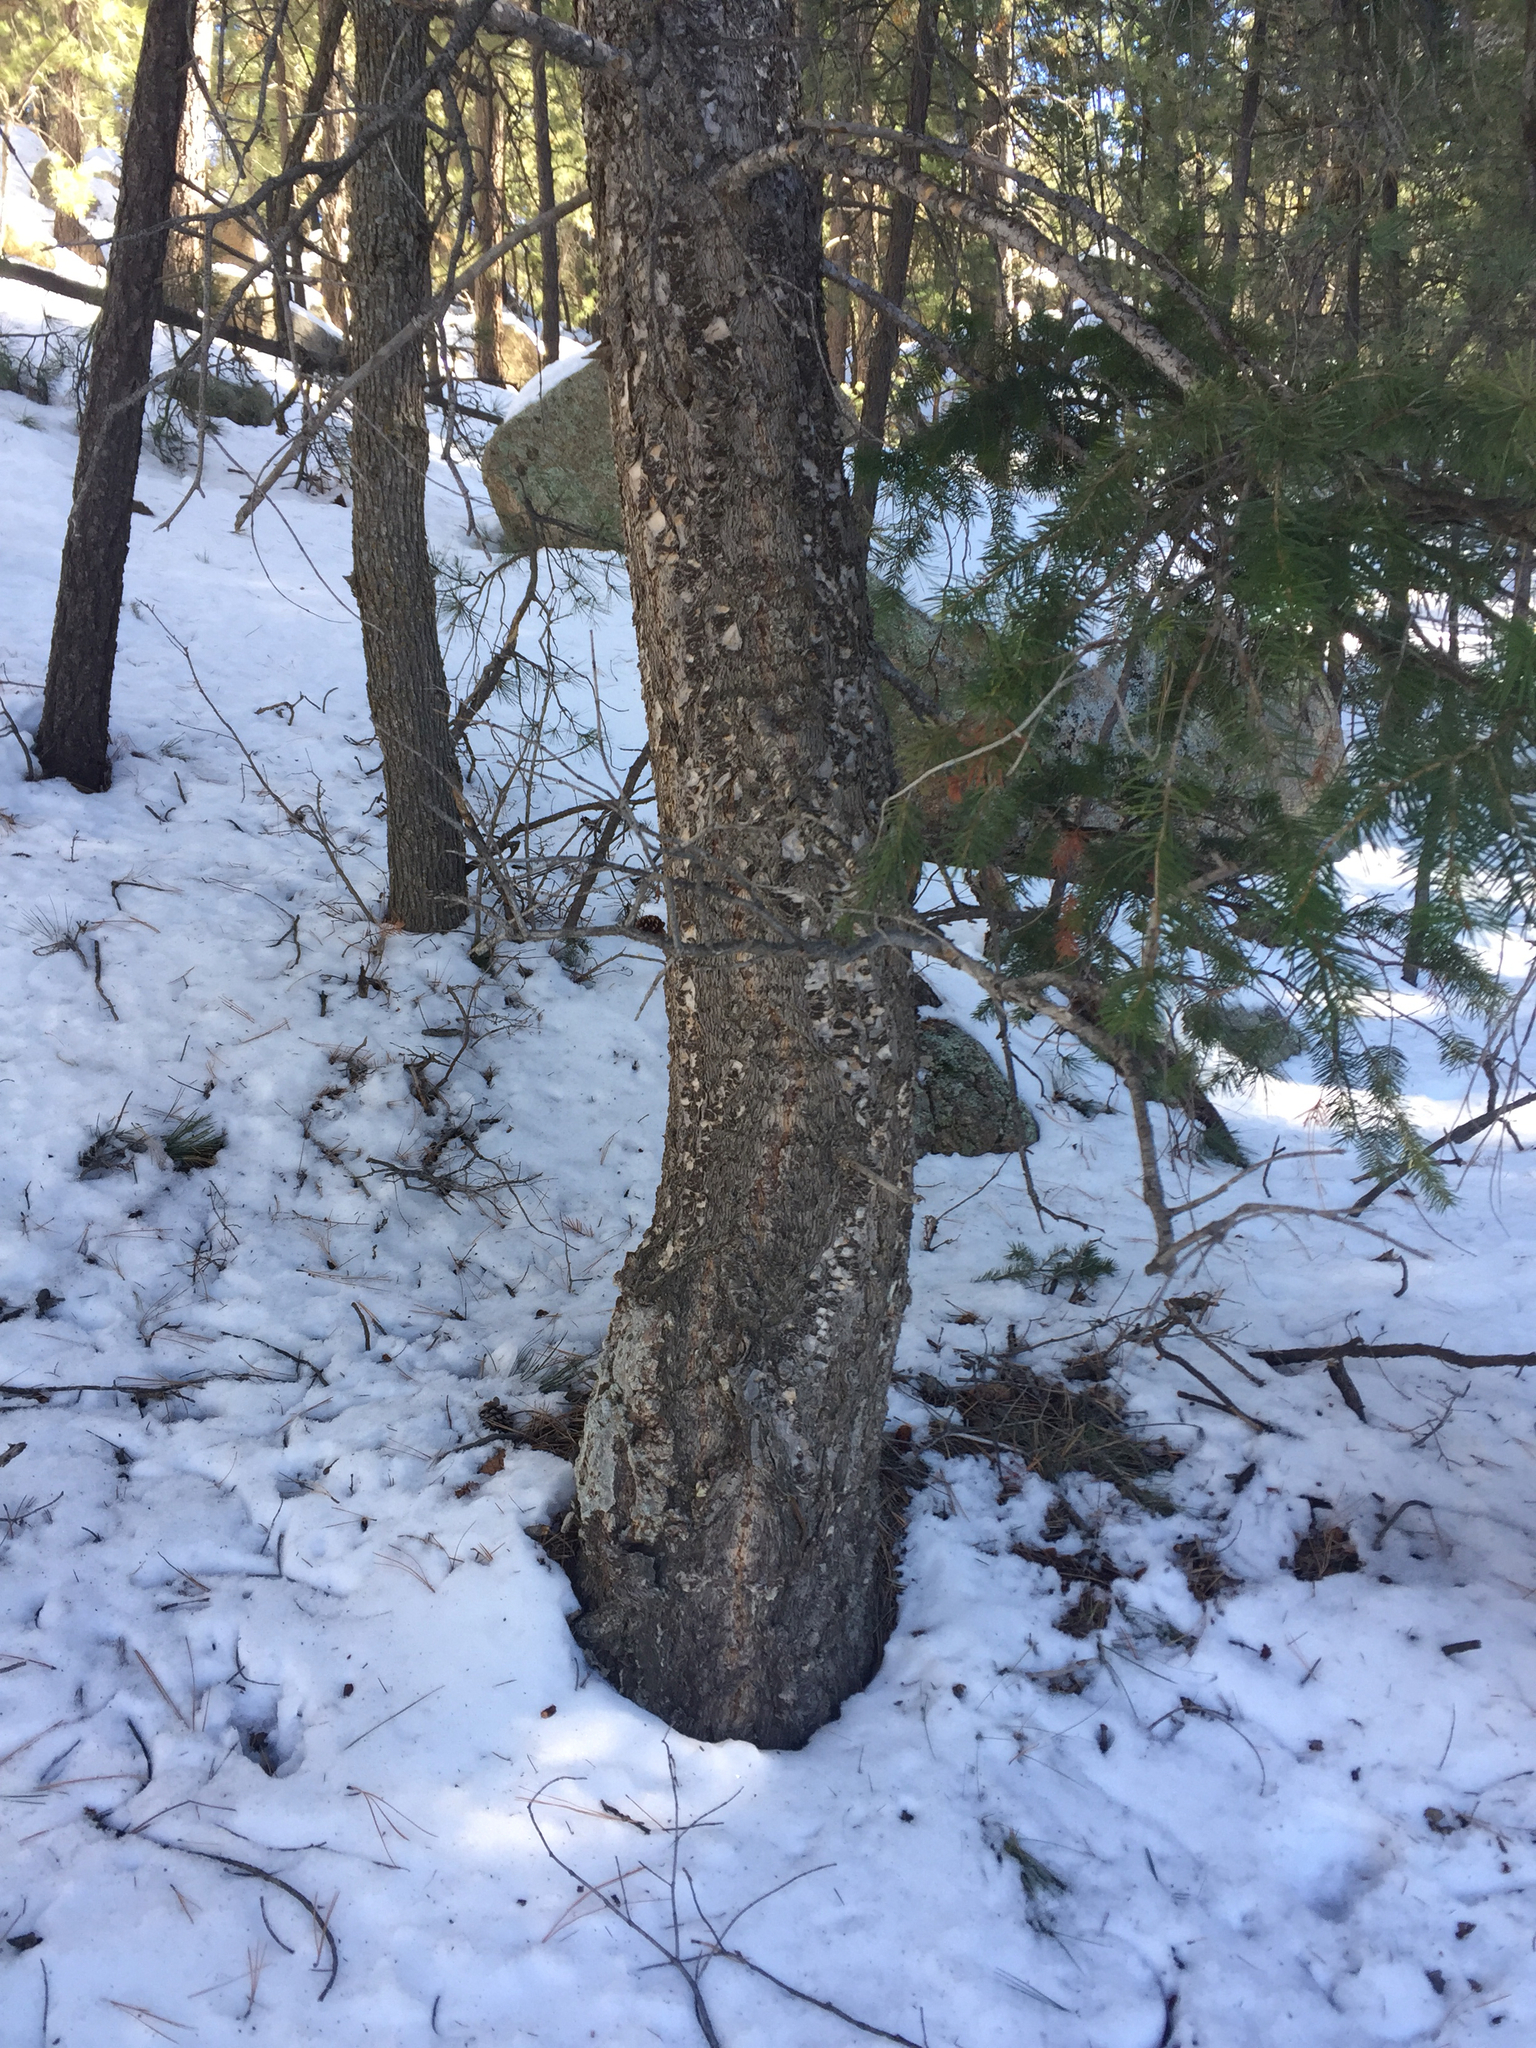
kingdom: Plantae
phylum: Tracheophyta
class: Pinopsida
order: Pinales
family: Pinaceae
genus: Pseudotsuga
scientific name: Pseudotsuga menziesii
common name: Douglas fir
